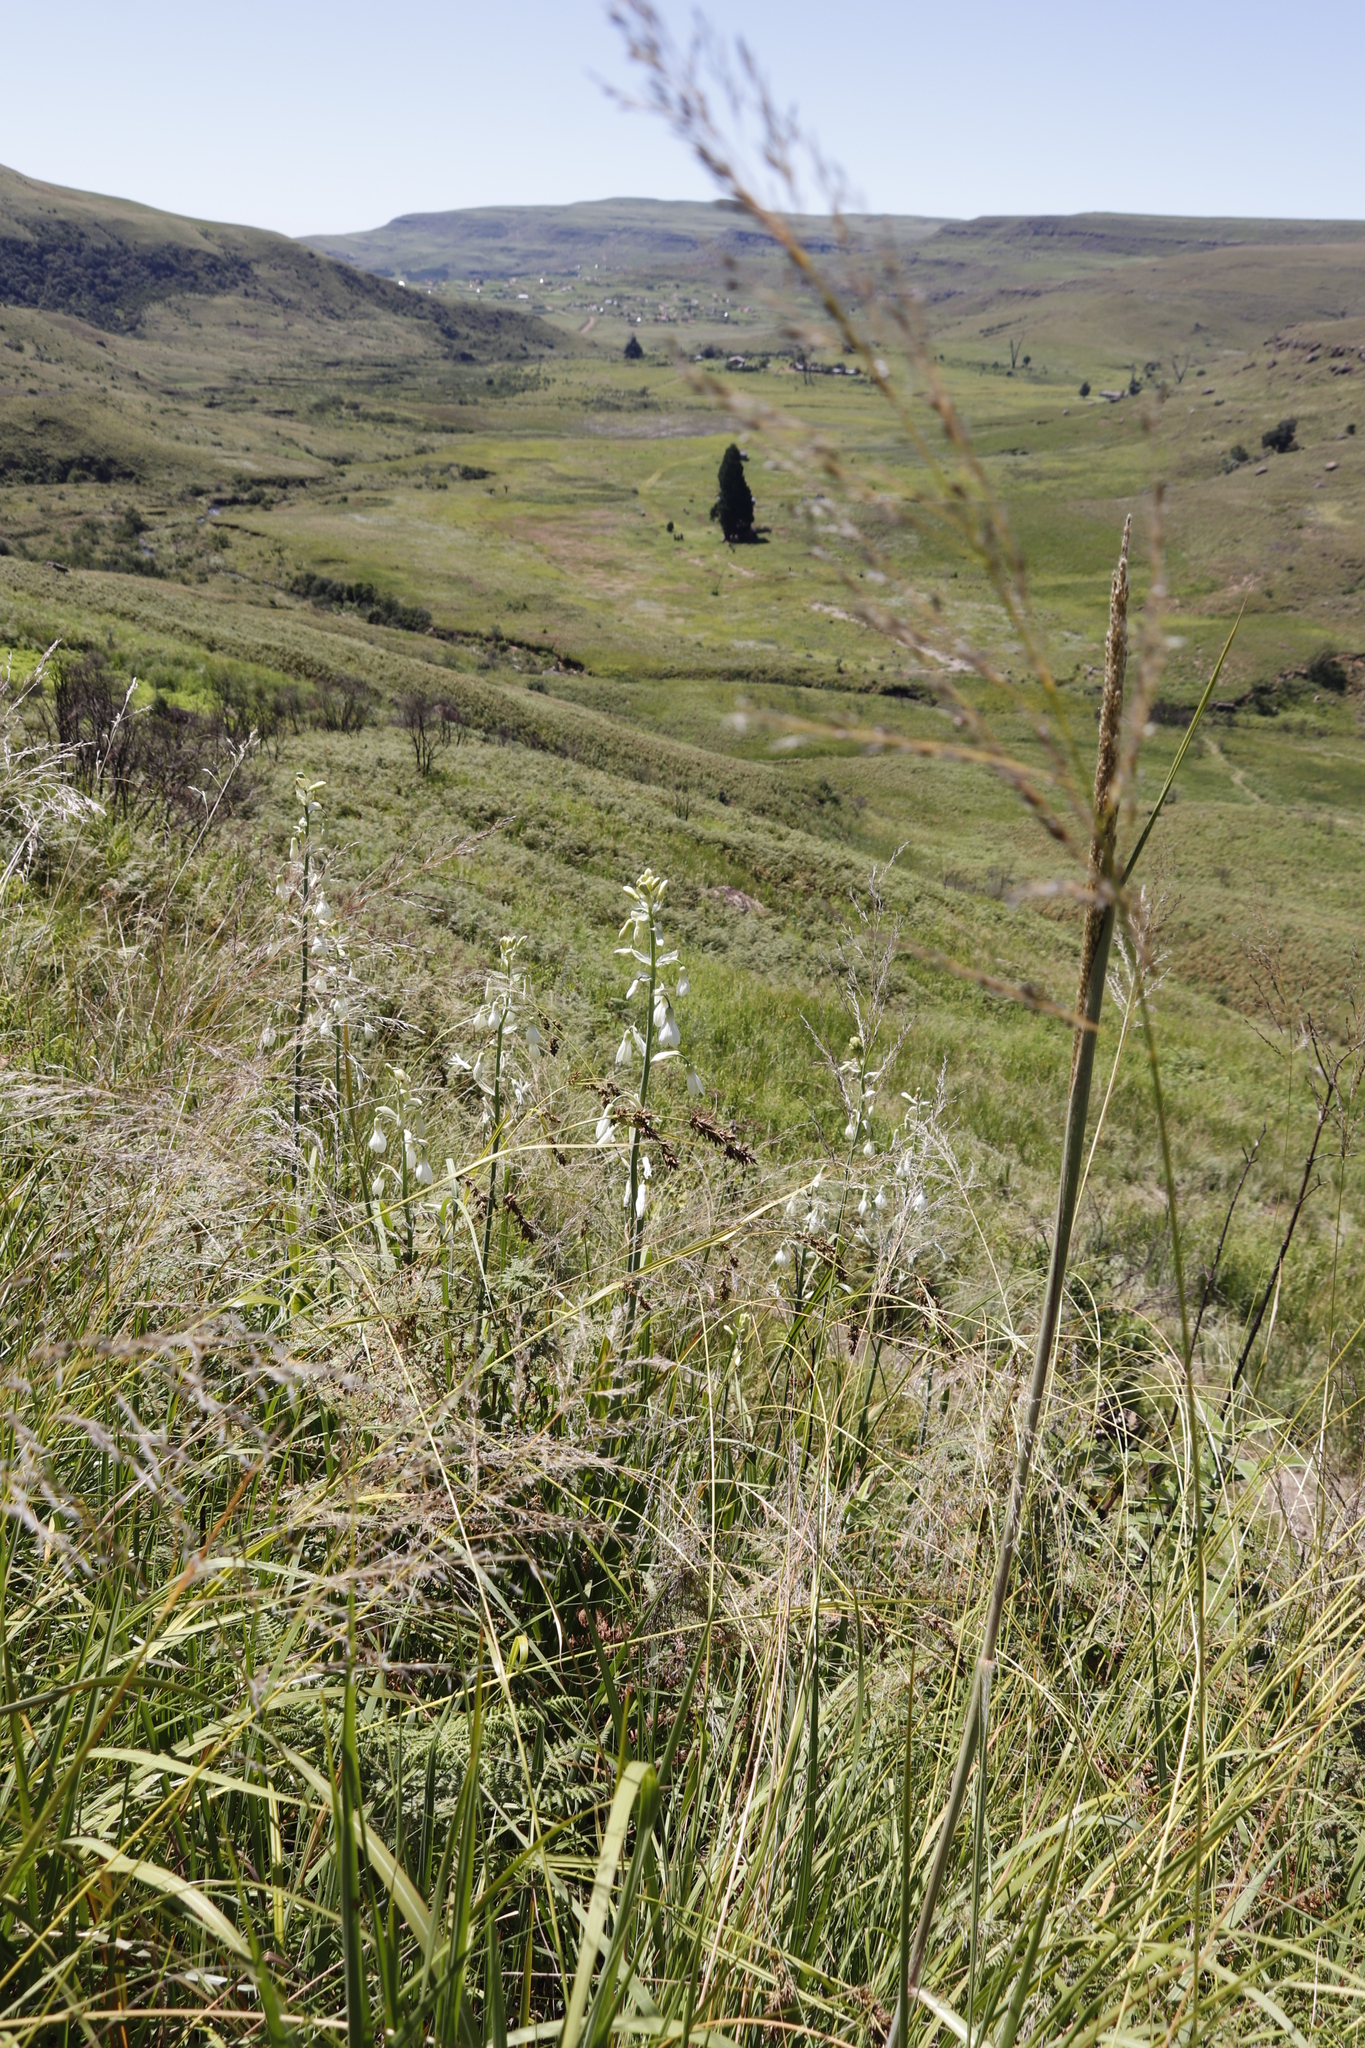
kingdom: Plantae
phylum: Tracheophyta
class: Liliopsida
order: Asparagales
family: Asparagaceae
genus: Ornithogalum
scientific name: Ornithogalum candicans
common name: Summer-hyacinth
